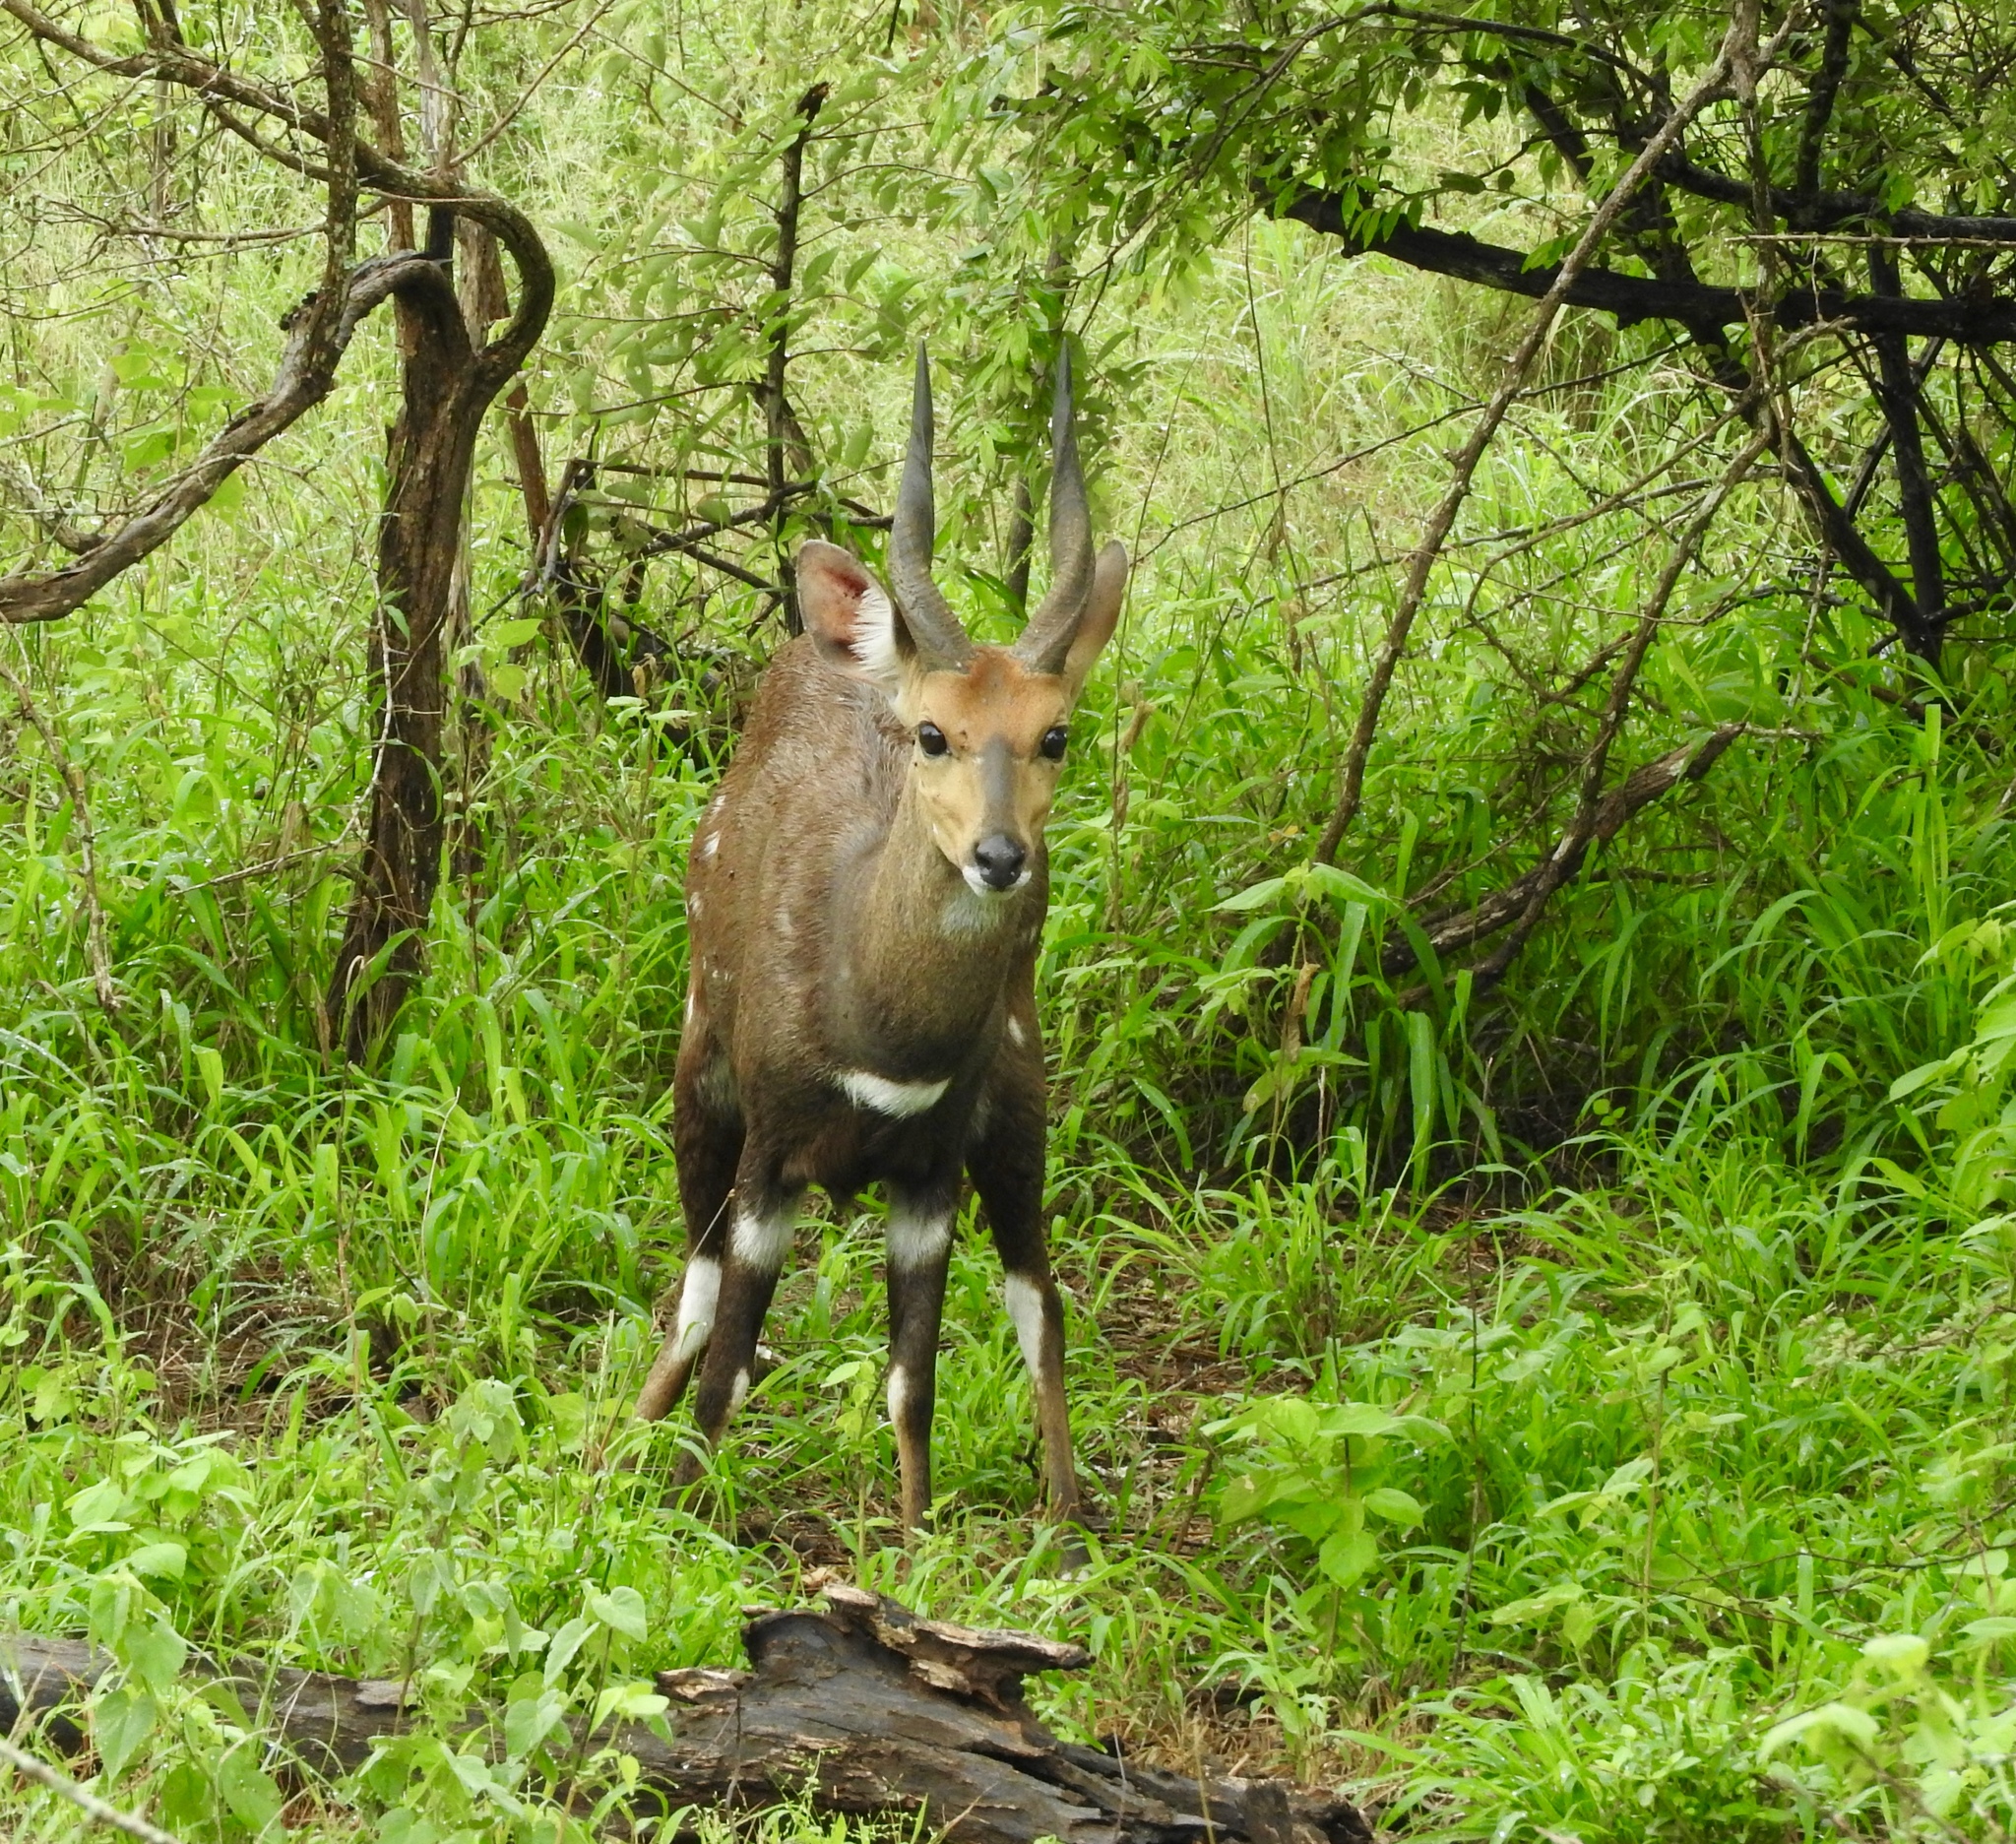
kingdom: Animalia
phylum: Chordata
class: Mammalia
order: Artiodactyla
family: Bovidae
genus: Tragelaphus
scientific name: Tragelaphus scriptus
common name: Bushbuck
